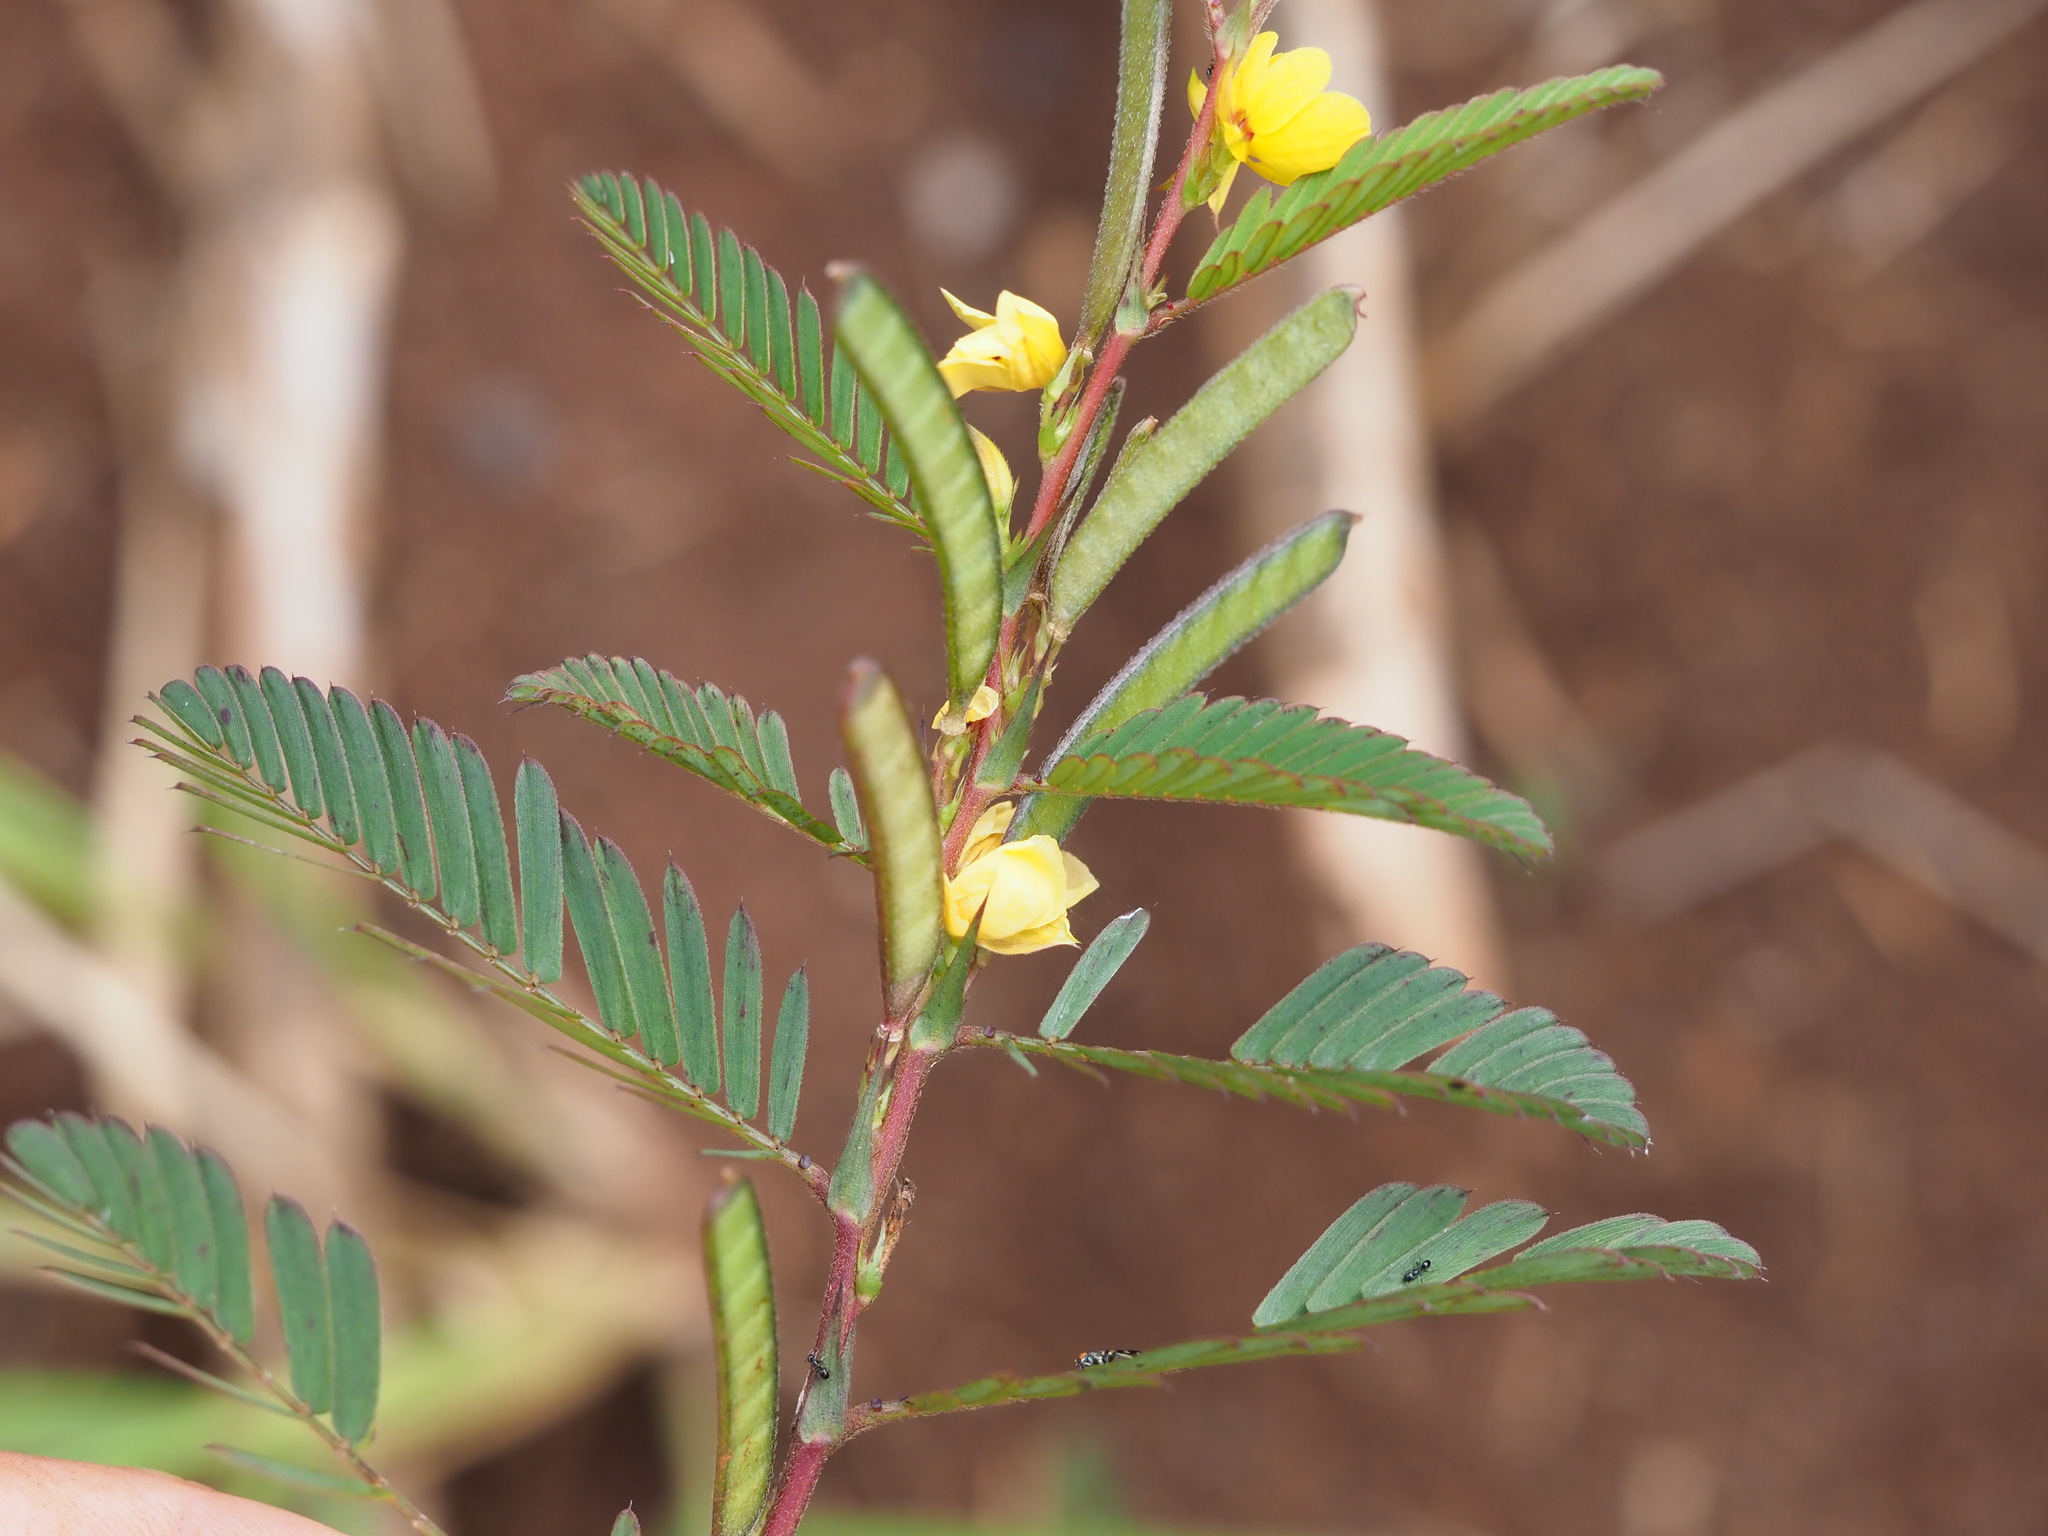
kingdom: Plantae
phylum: Tracheophyta
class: Magnoliopsida
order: Fabales
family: Fabaceae
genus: Chamaecrista
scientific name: Chamaecrista nictitans
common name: Sensitive cassia
